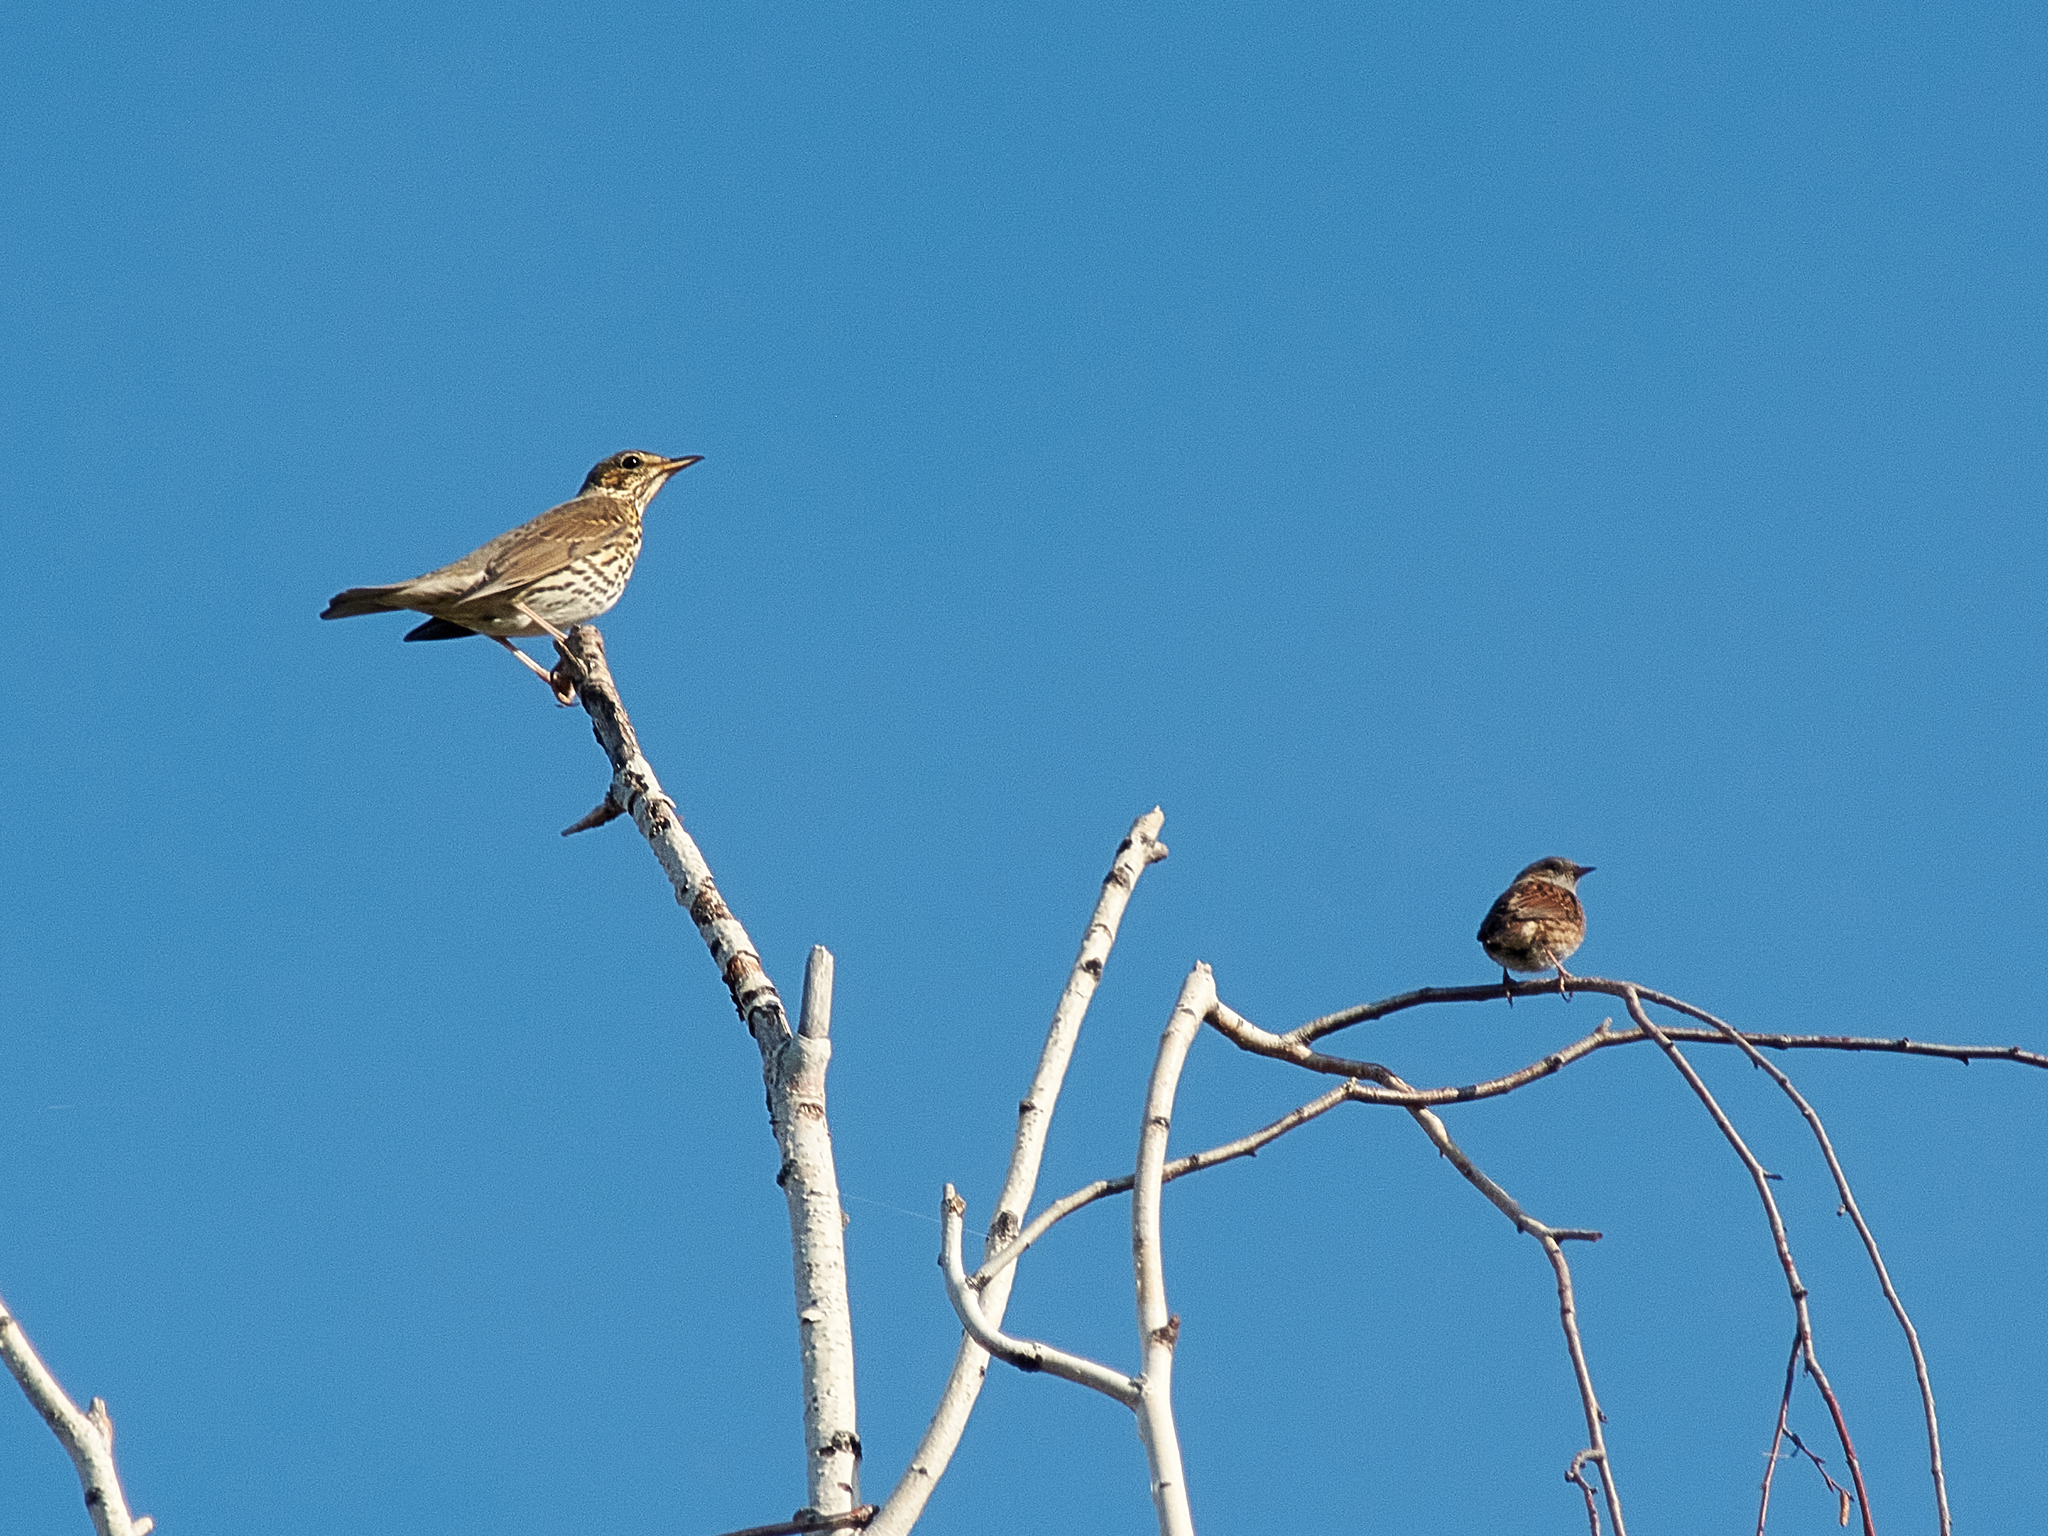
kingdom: Animalia
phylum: Chordata
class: Aves
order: Passeriformes
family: Turdidae
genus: Turdus
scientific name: Turdus philomelos
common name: Song thrush
